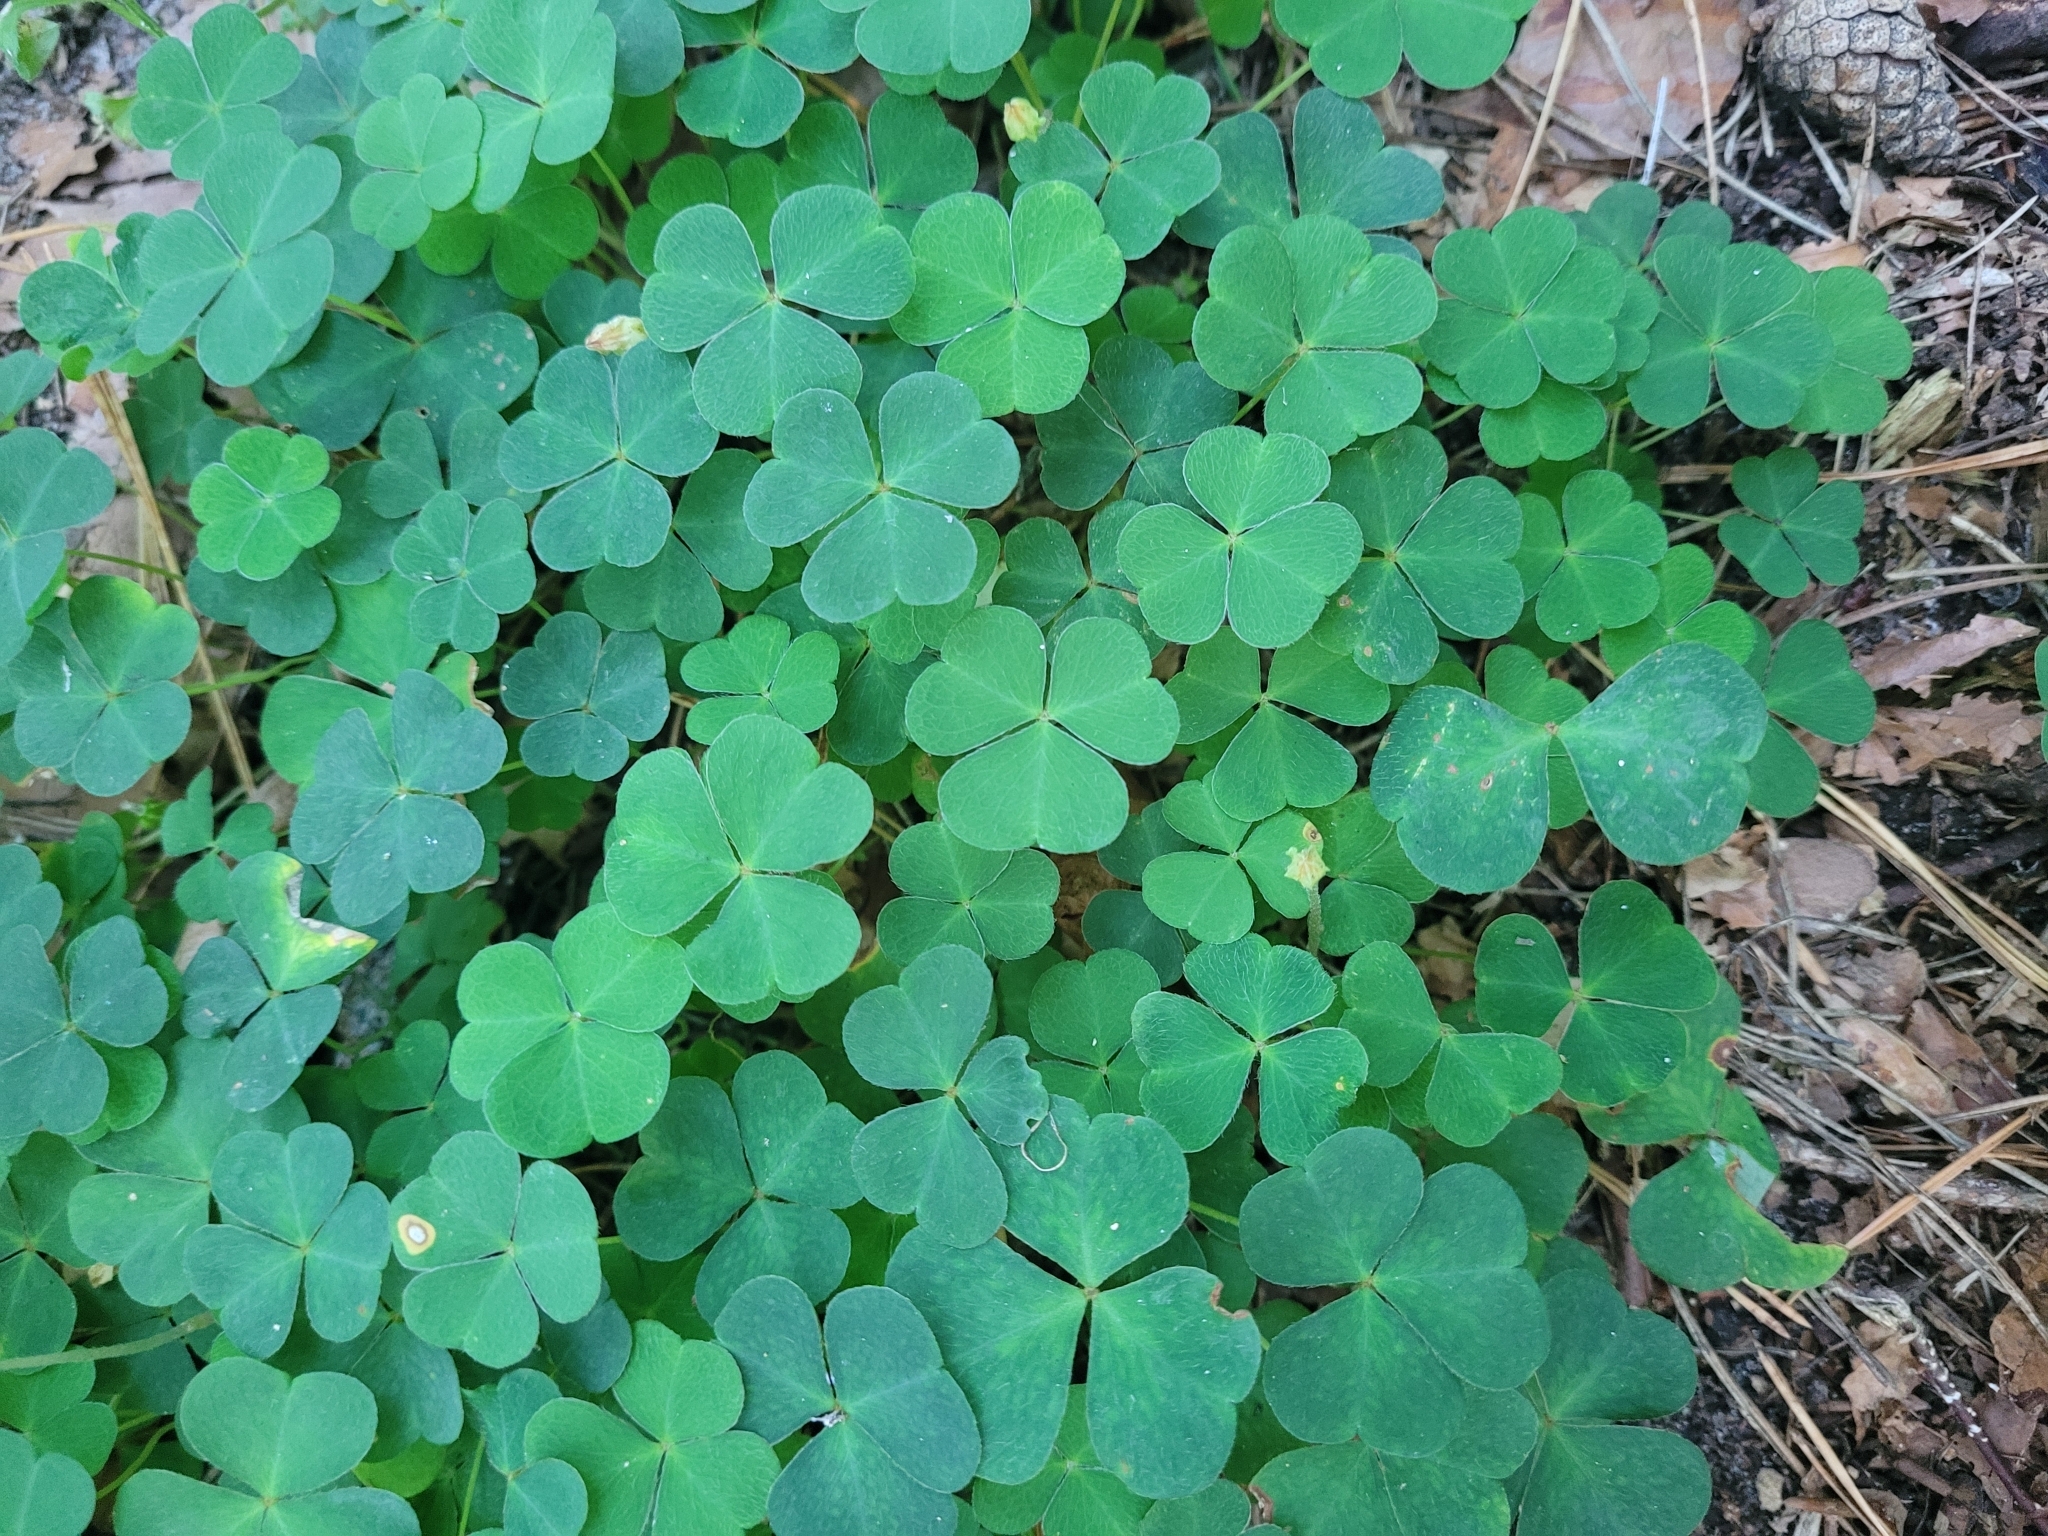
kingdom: Plantae
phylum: Tracheophyta
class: Magnoliopsida
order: Oxalidales
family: Oxalidaceae
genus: Oxalis
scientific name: Oxalis acetosella
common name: Wood-sorrel
